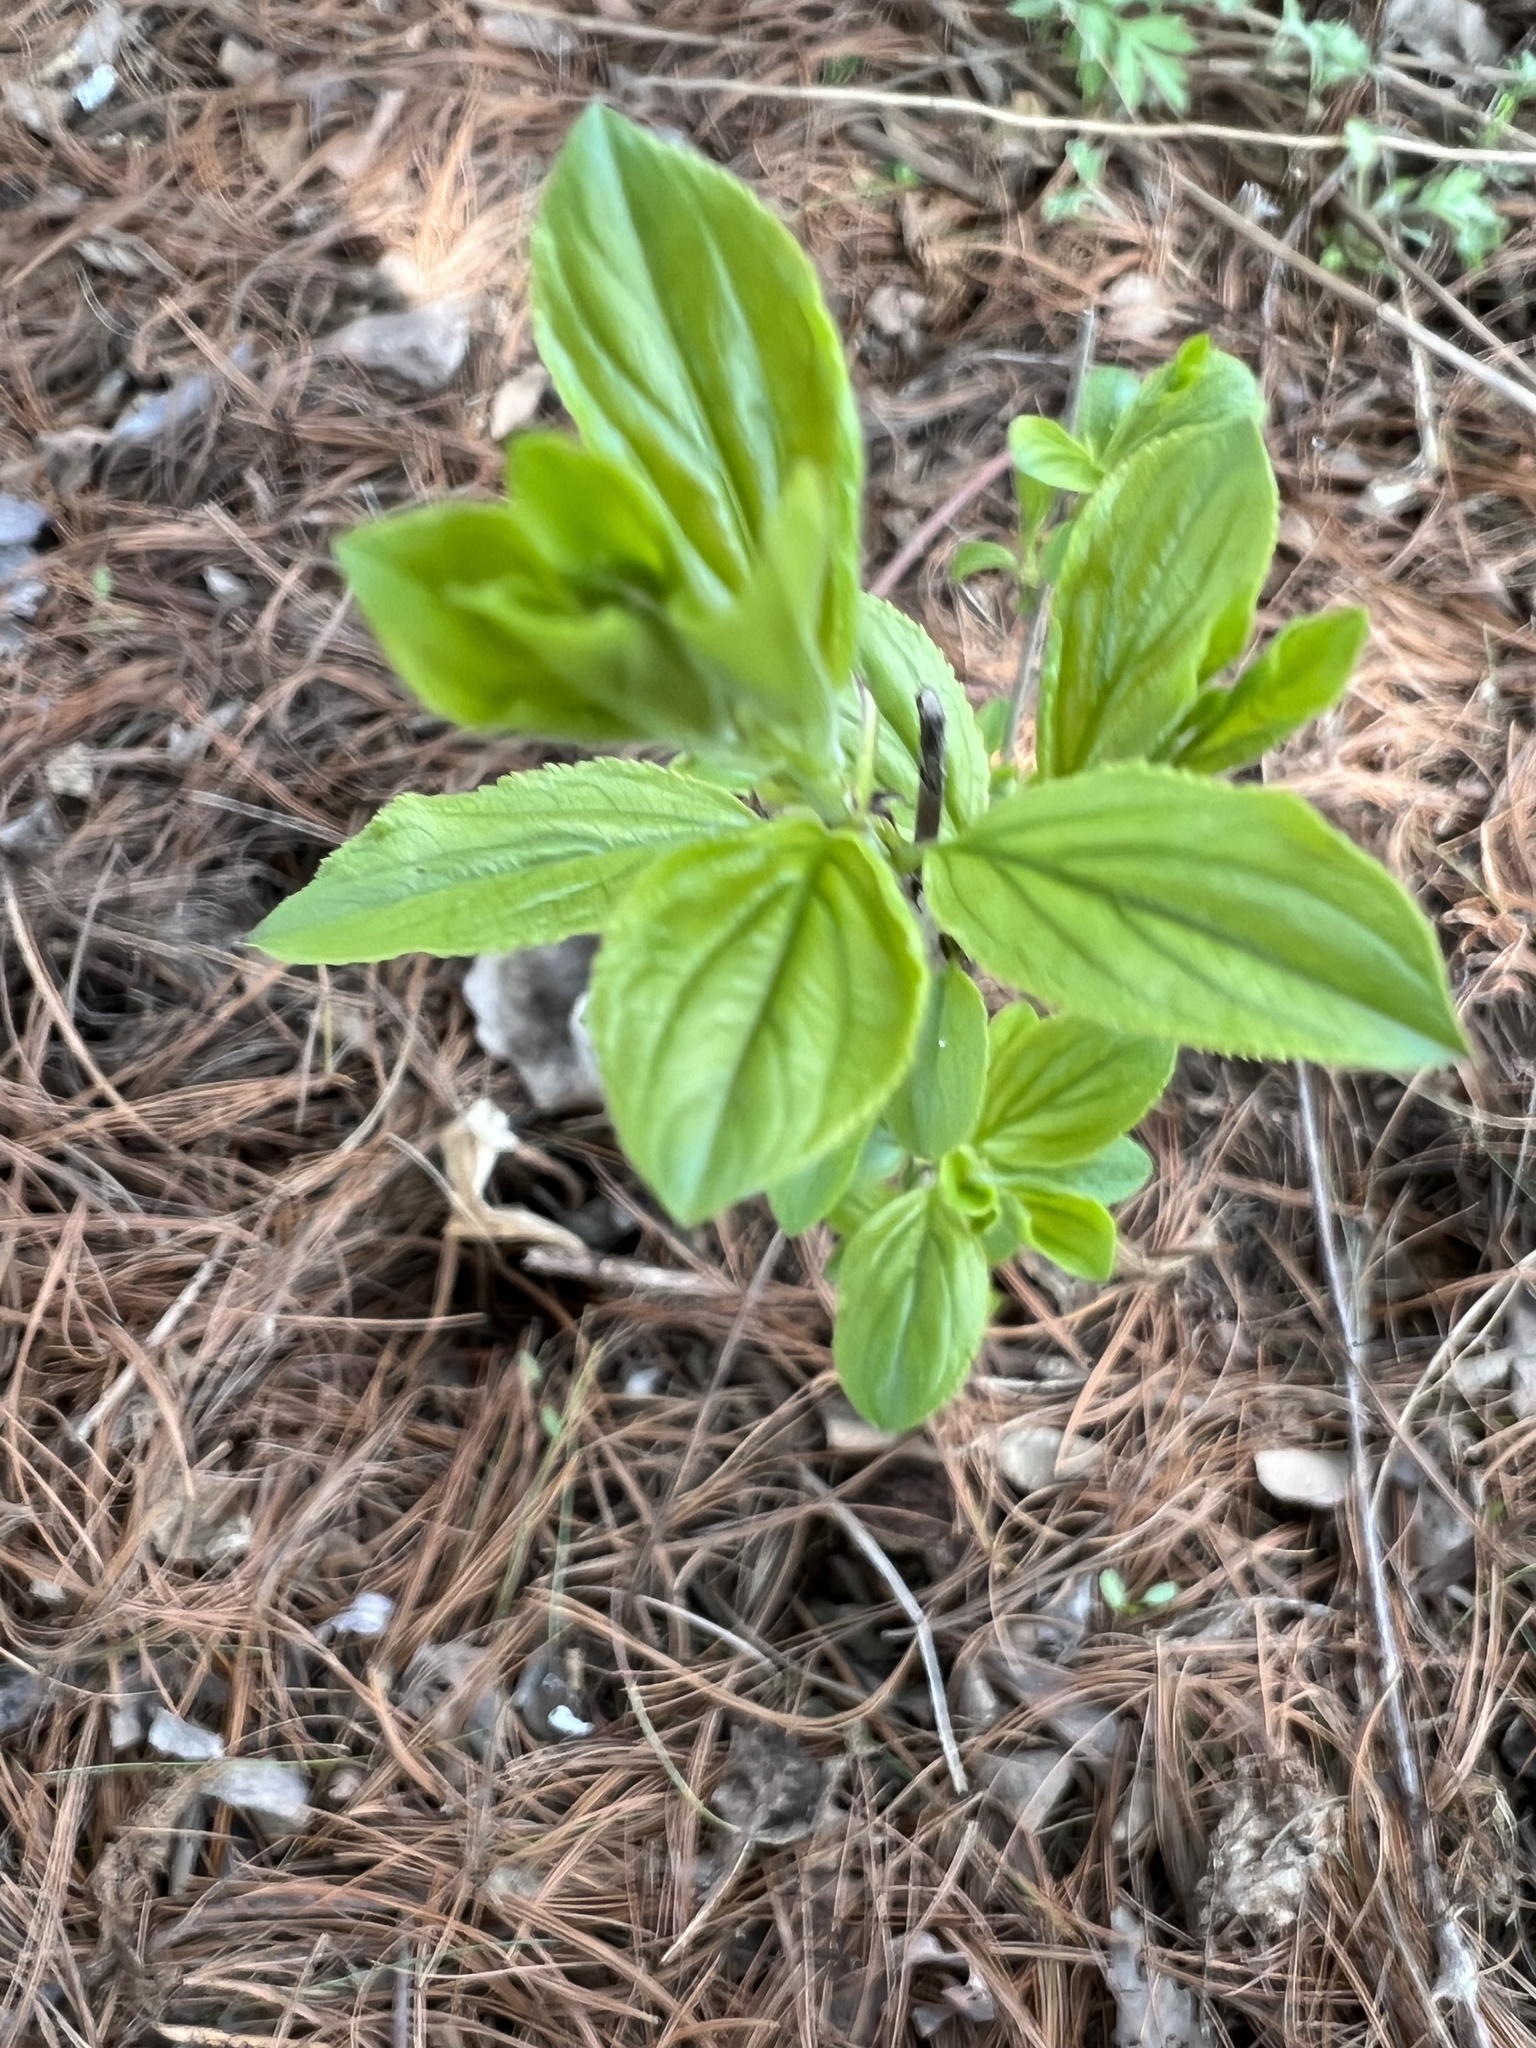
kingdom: Plantae
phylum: Tracheophyta
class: Magnoliopsida
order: Rosales
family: Rhamnaceae
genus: Rhamnus
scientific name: Rhamnus cathartica
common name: Common buckthorn
